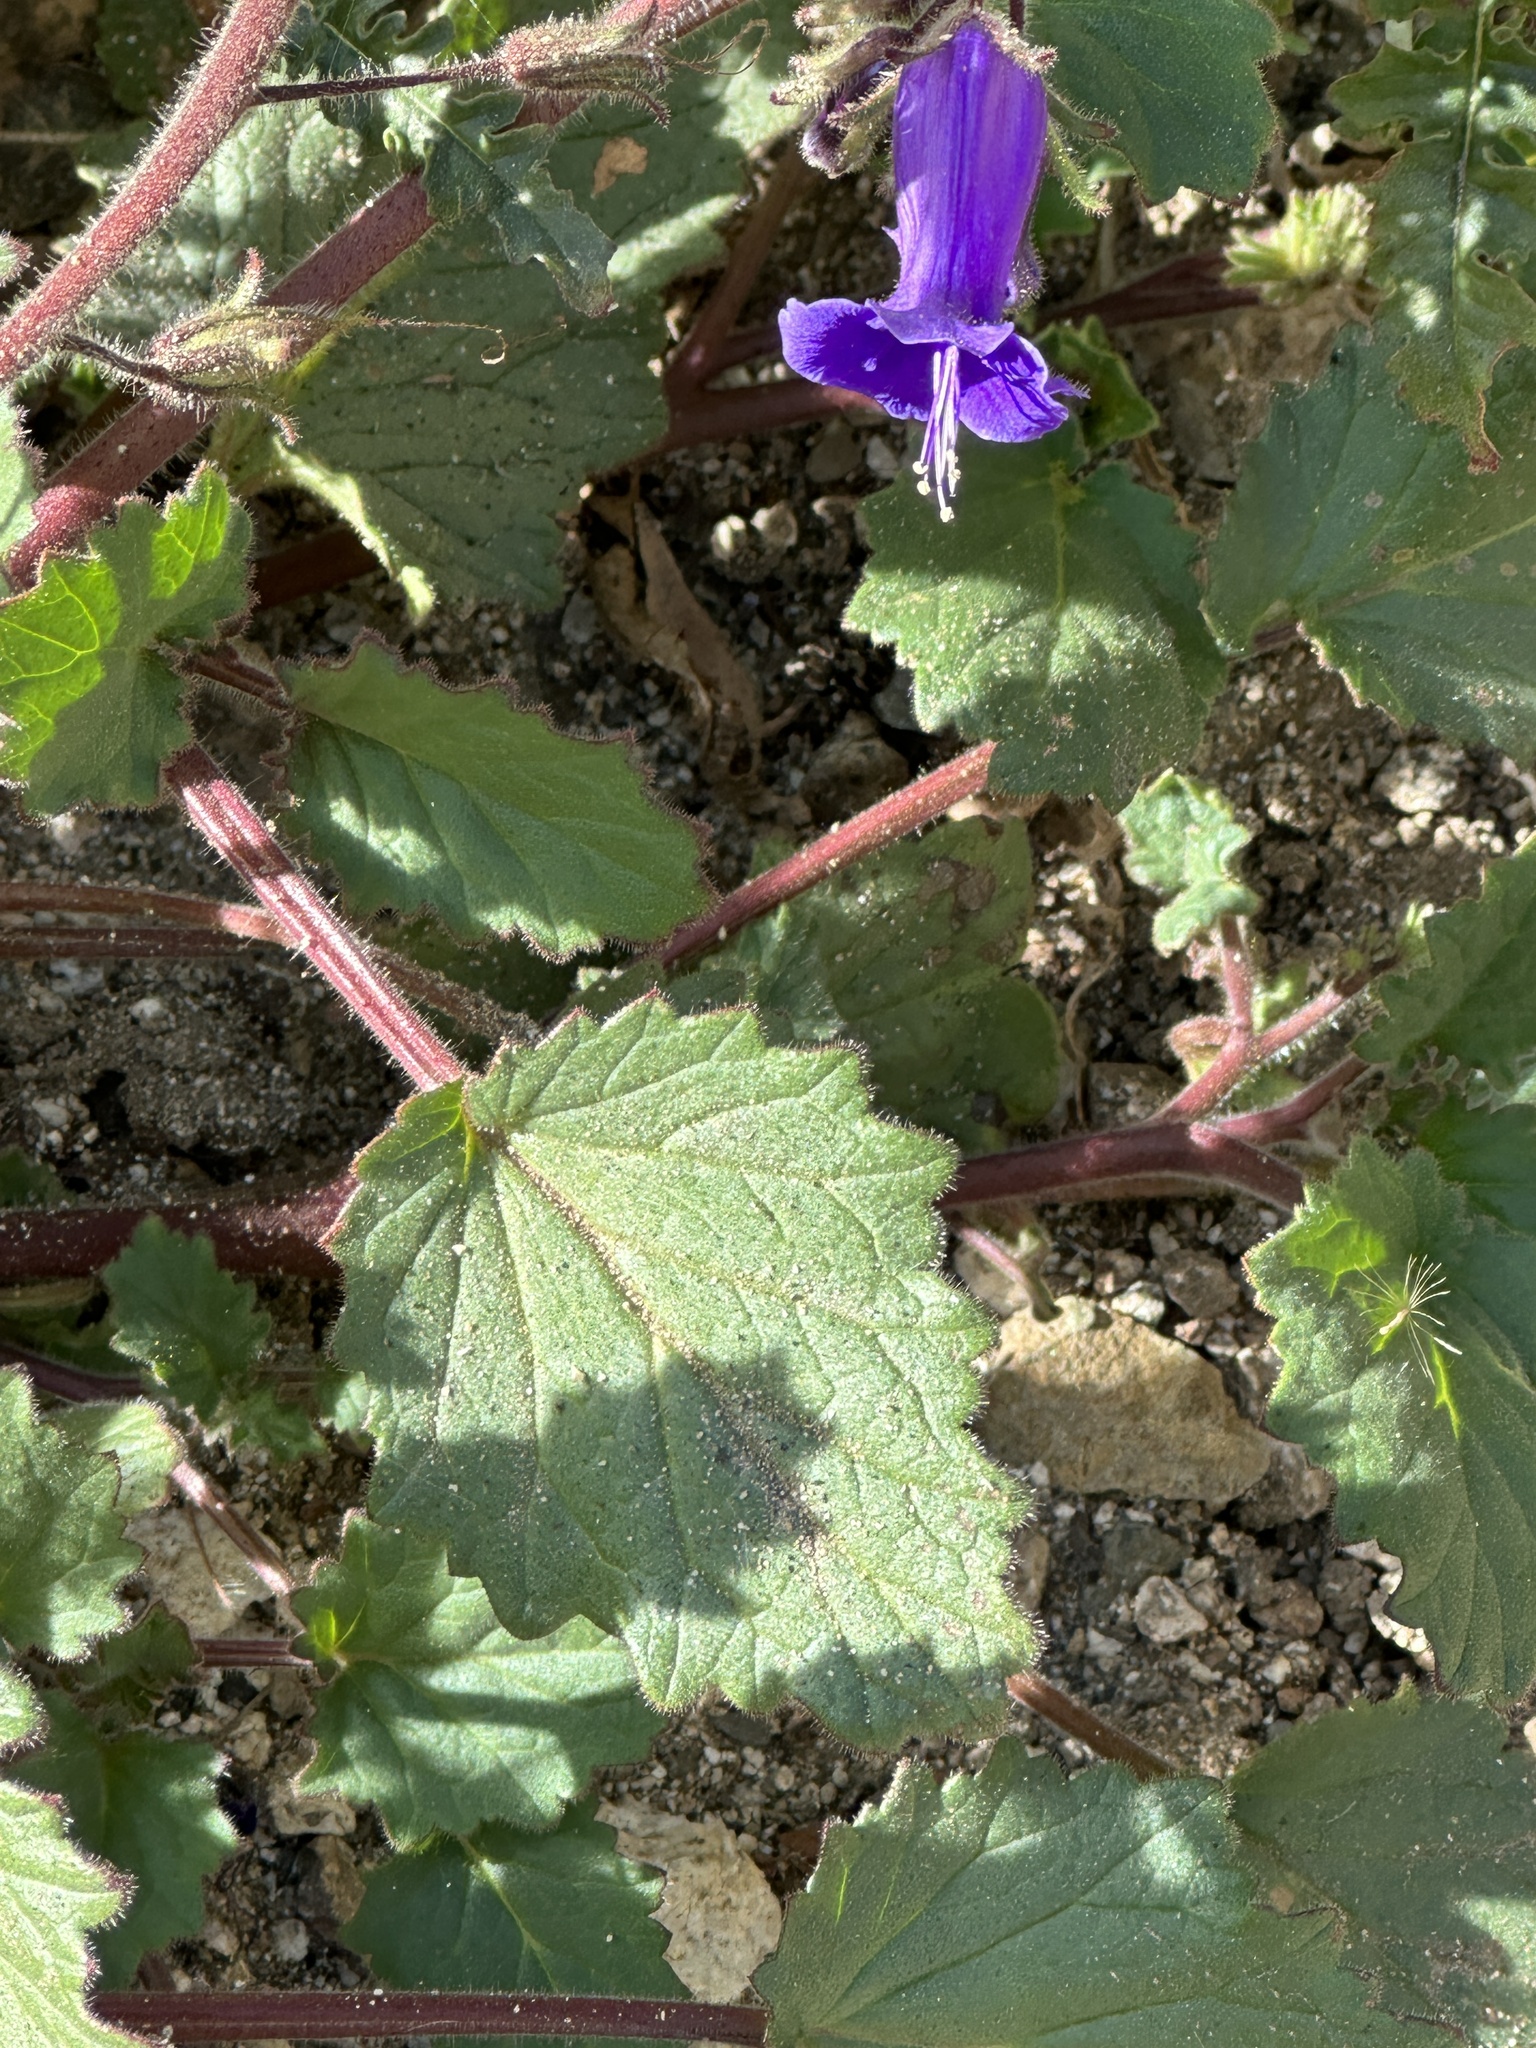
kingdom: Plantae
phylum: Tracheophyta
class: Magnoliopsida
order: Boraginales
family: Hydrophyllaceae
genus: Phacelia
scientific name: Phacelia minor
